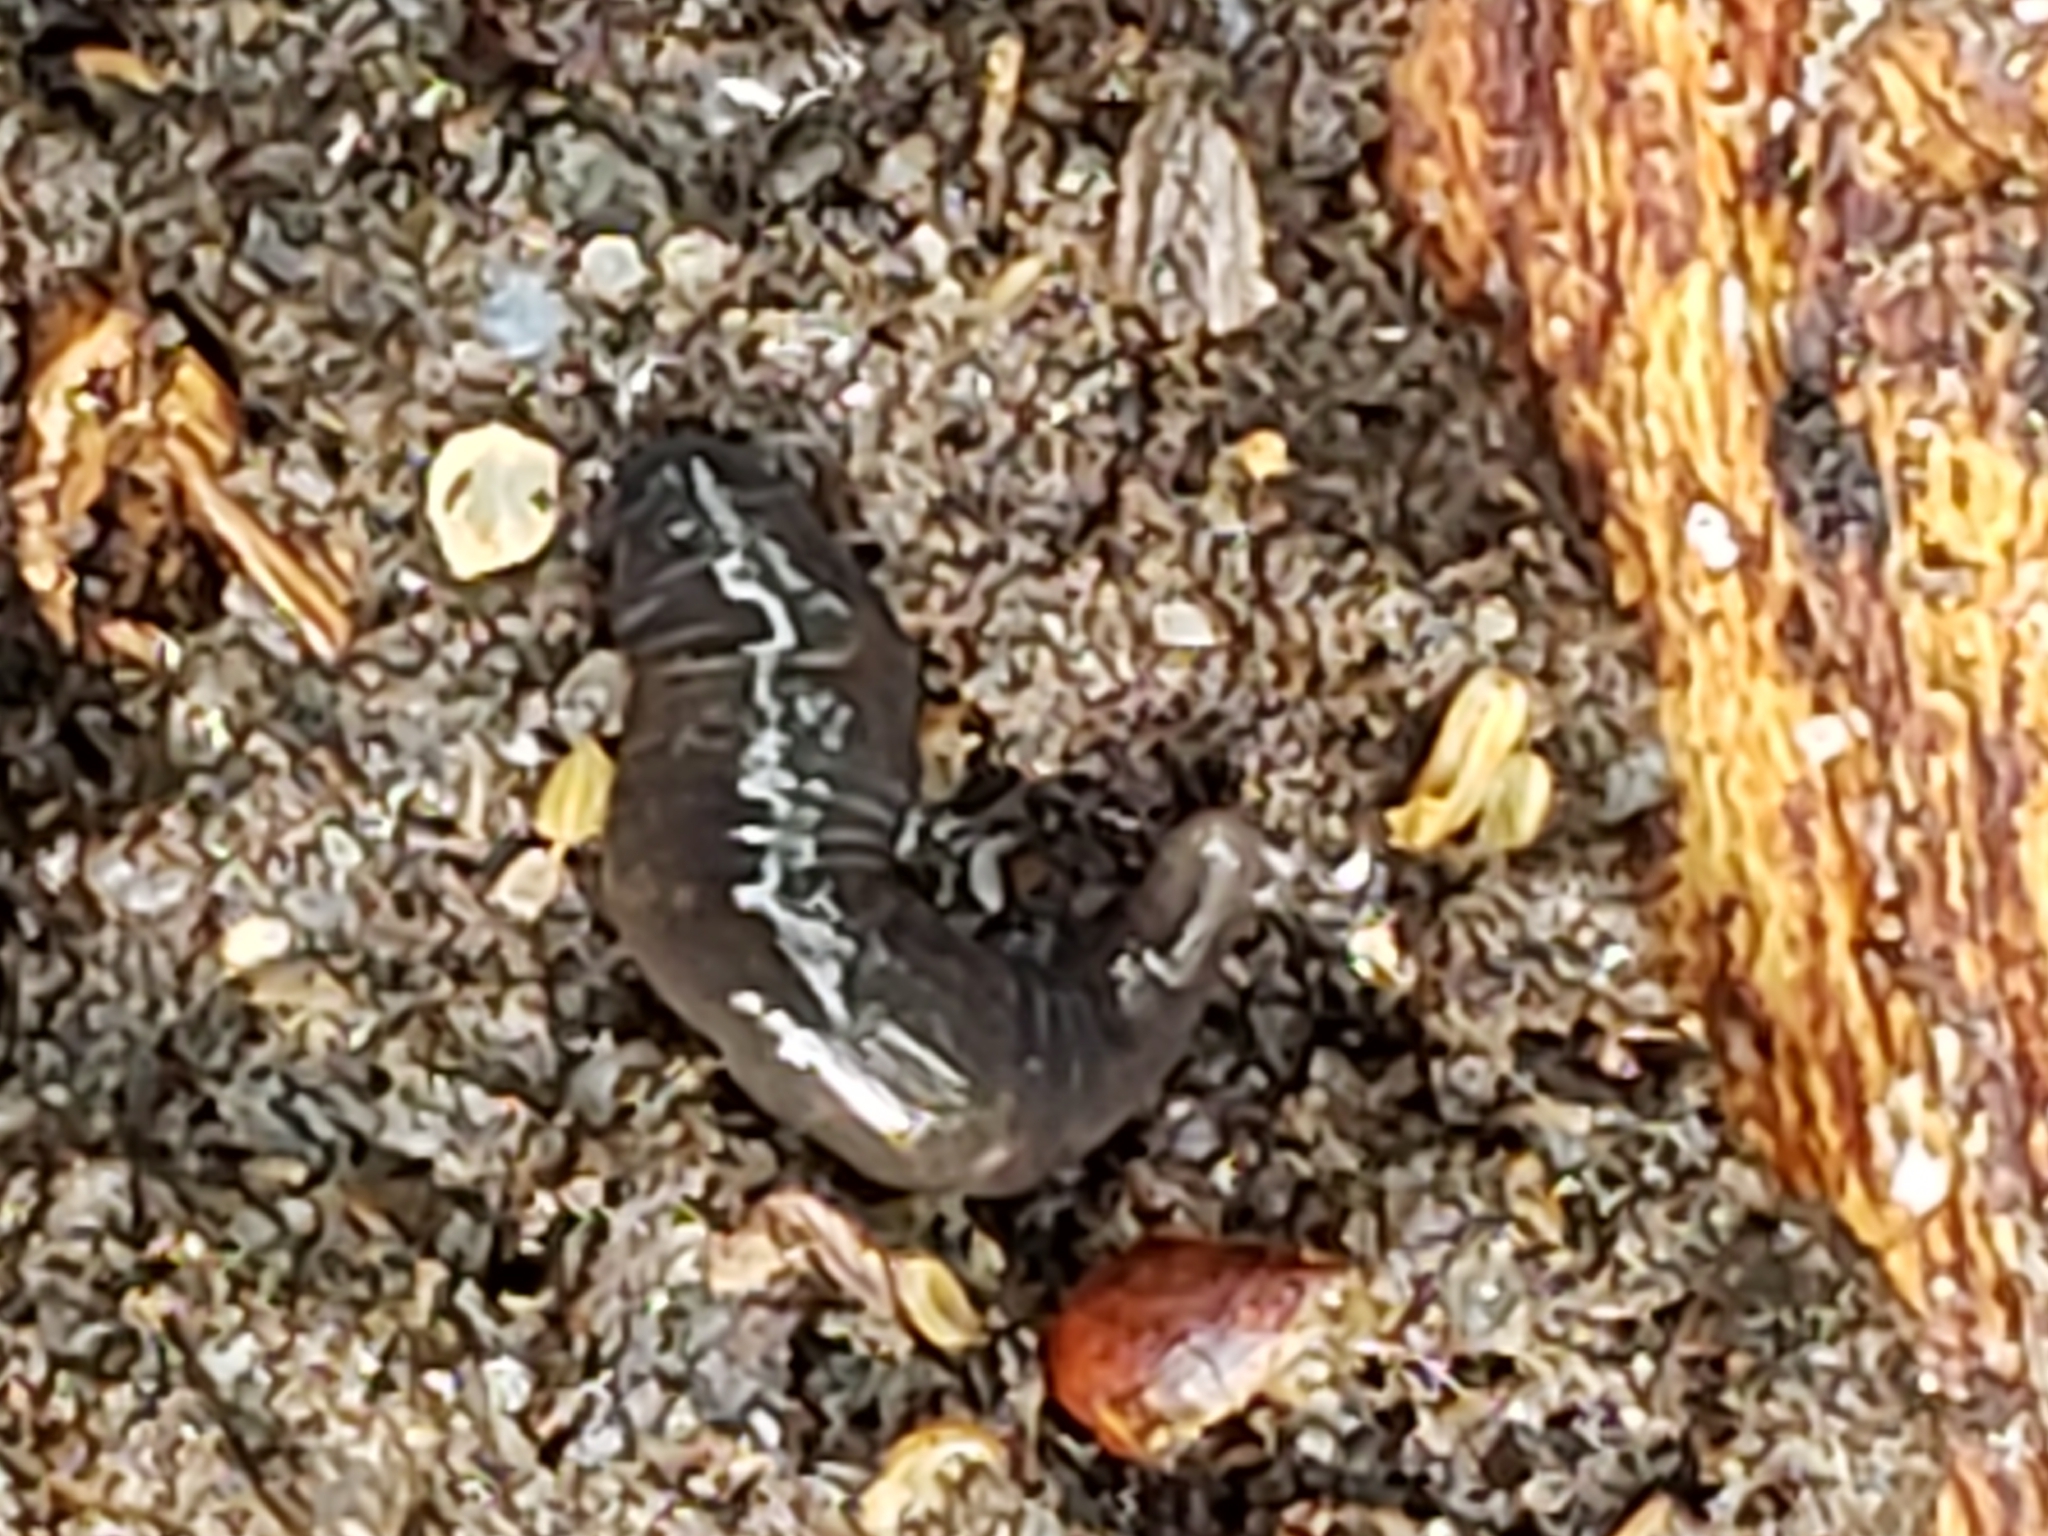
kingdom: Animalia
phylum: Platyhelminthes
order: Tricladida
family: Geoplanidae
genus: Microplana
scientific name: Microplana terrestris
